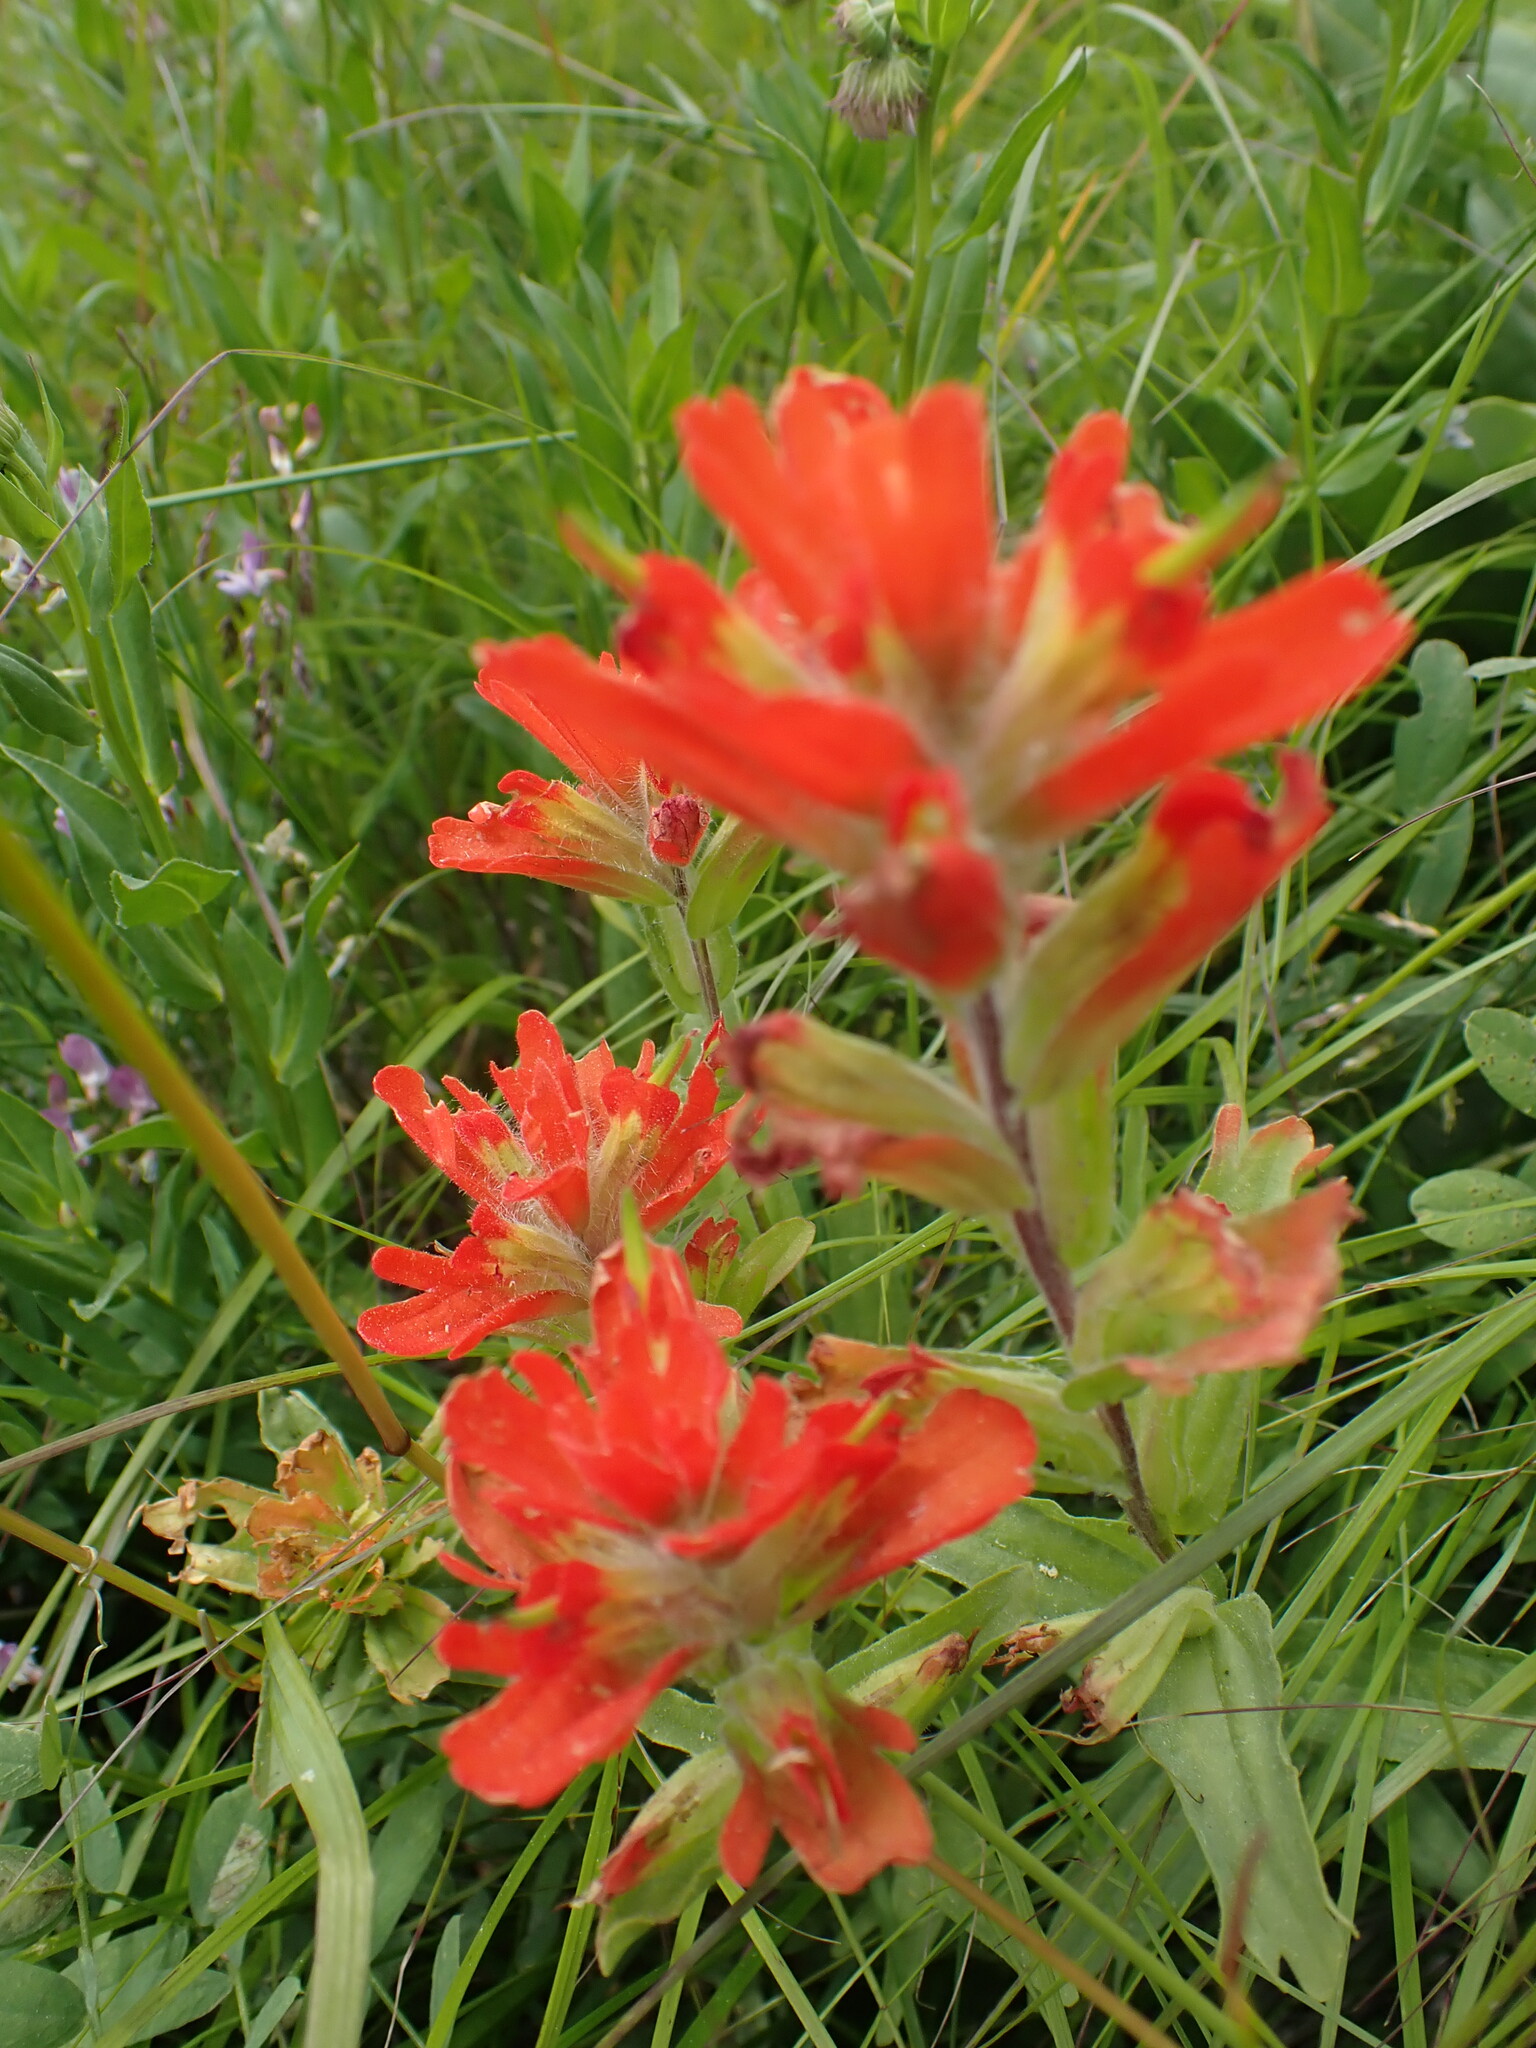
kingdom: Plantae
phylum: Tracheophyta
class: Magnoliopsida
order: Lamiales
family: Orobanchaceae
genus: Castilleja
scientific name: Castilleja hispida
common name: Bristly paintbrush
